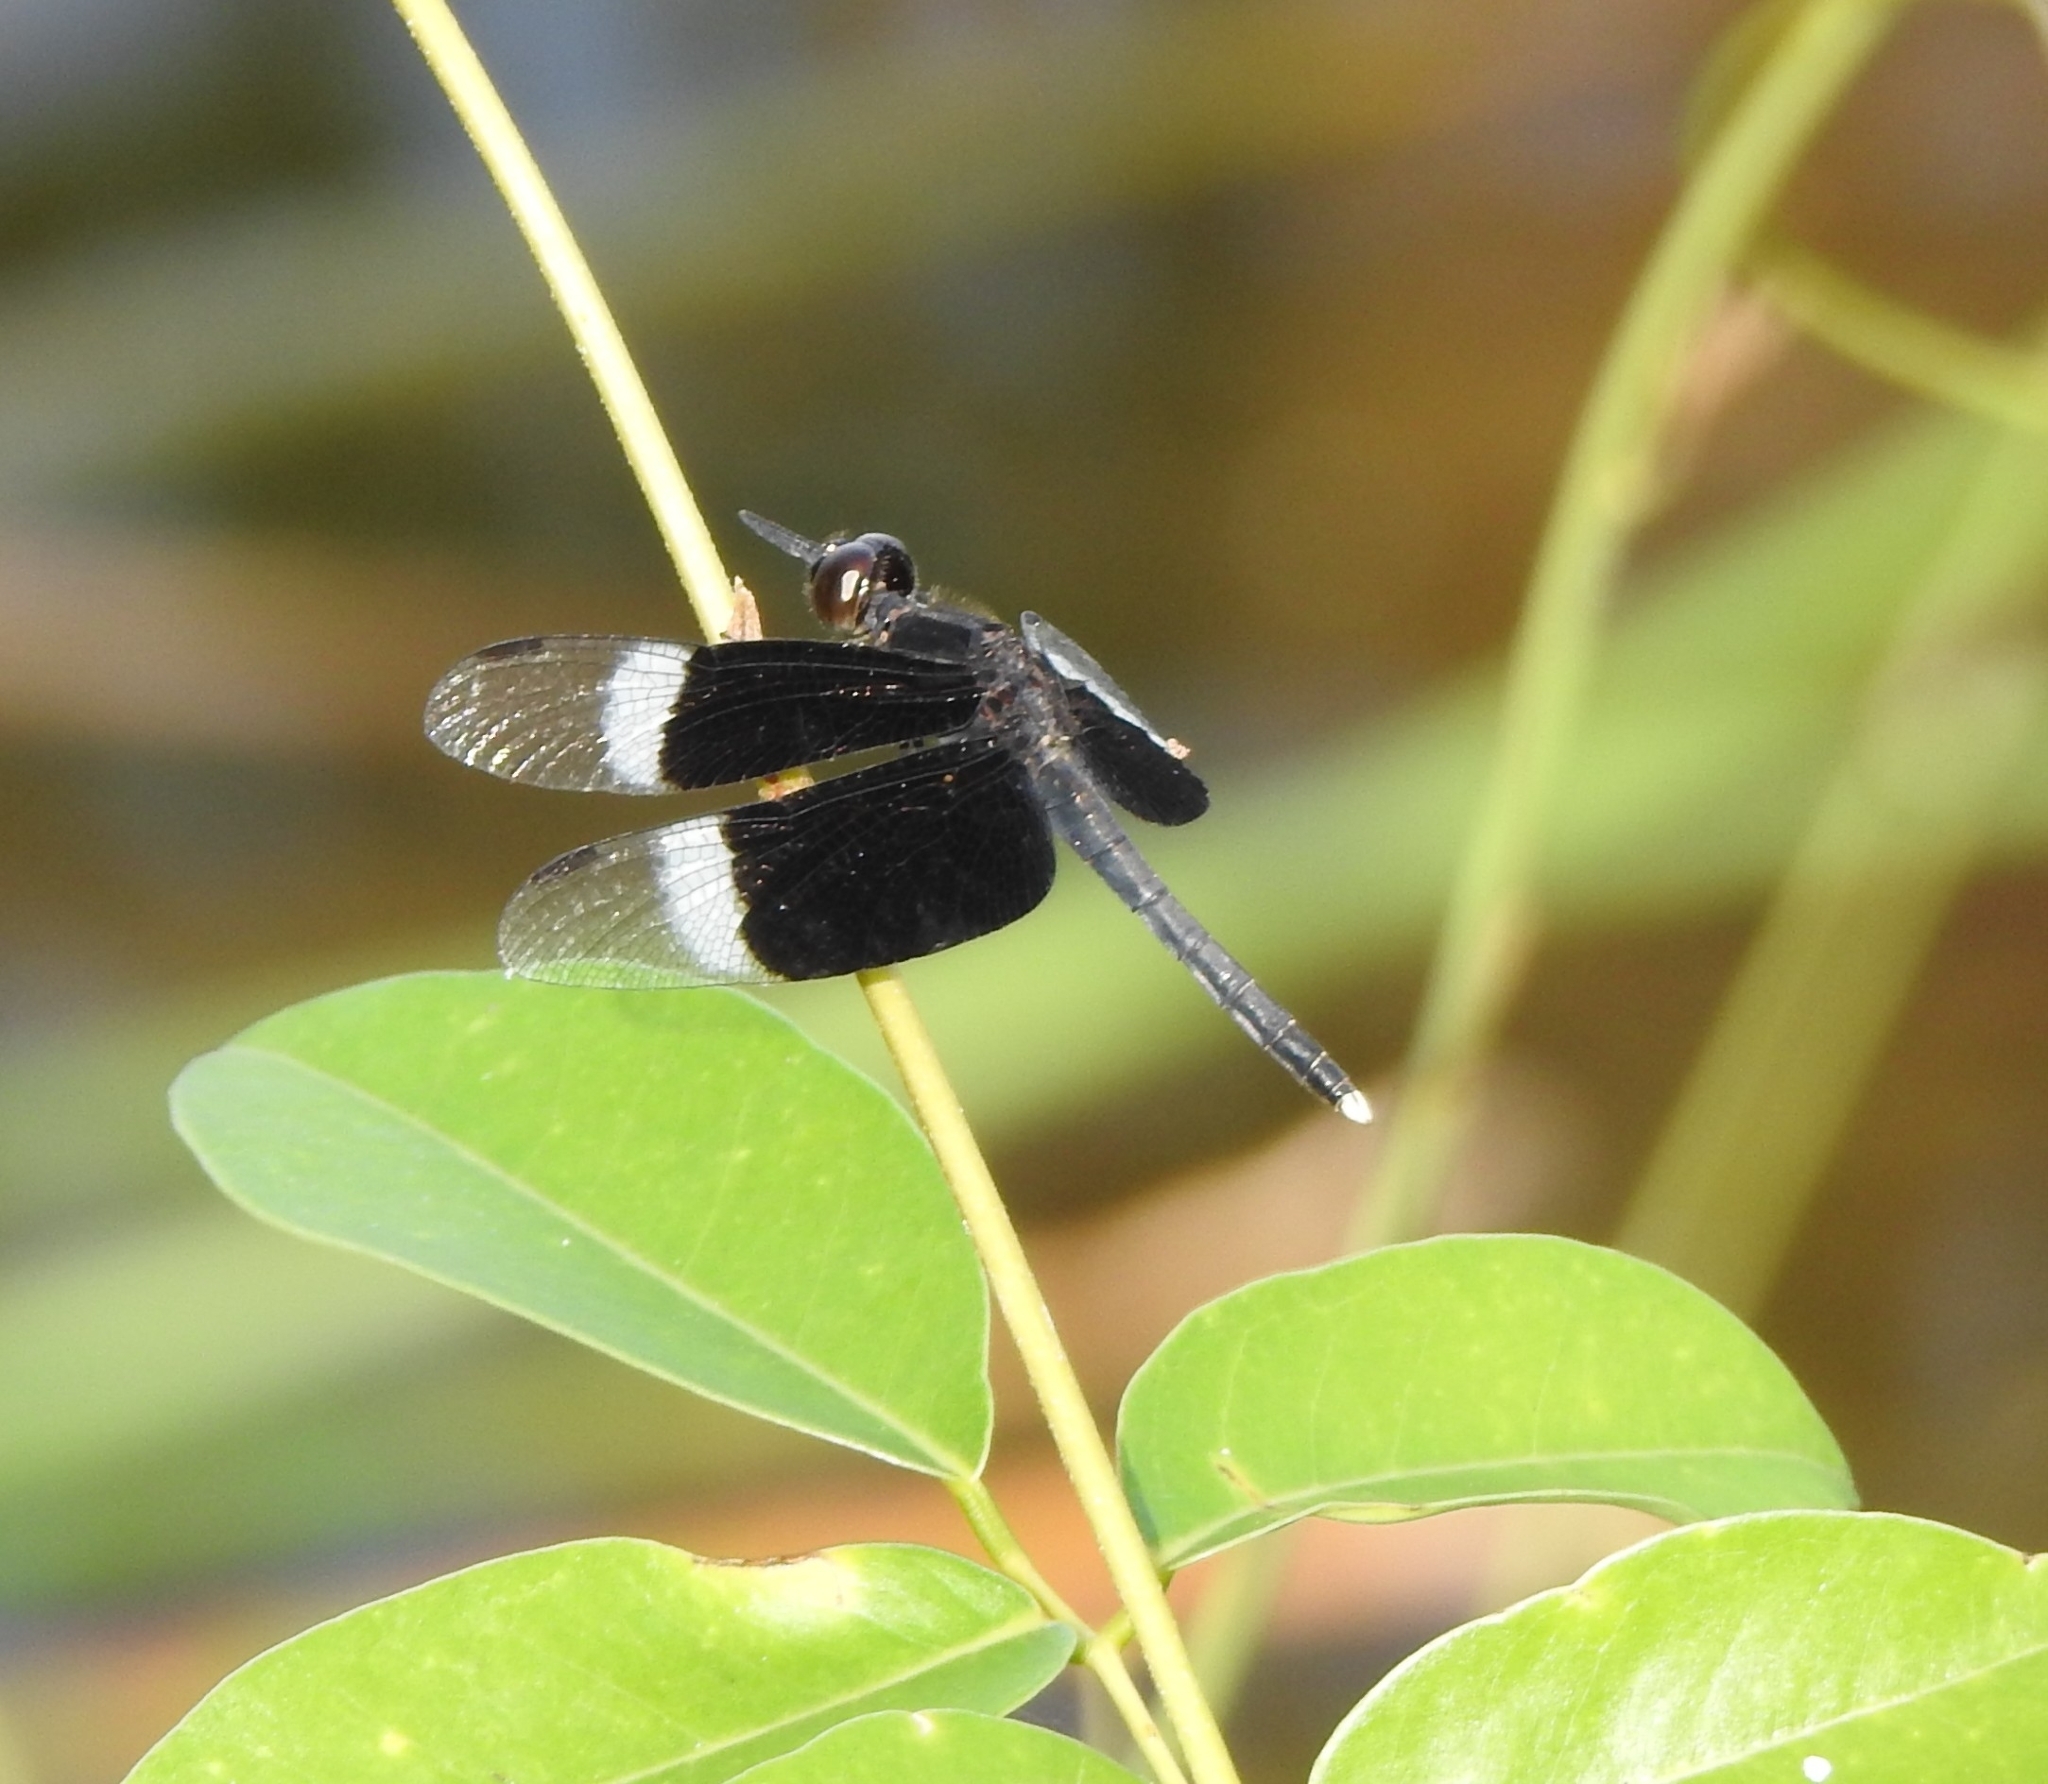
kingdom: Animalia
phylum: Arthropoda
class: Insecta
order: Odonata
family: Libellulidae
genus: Neurothemis
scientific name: Neurothemis tullia
